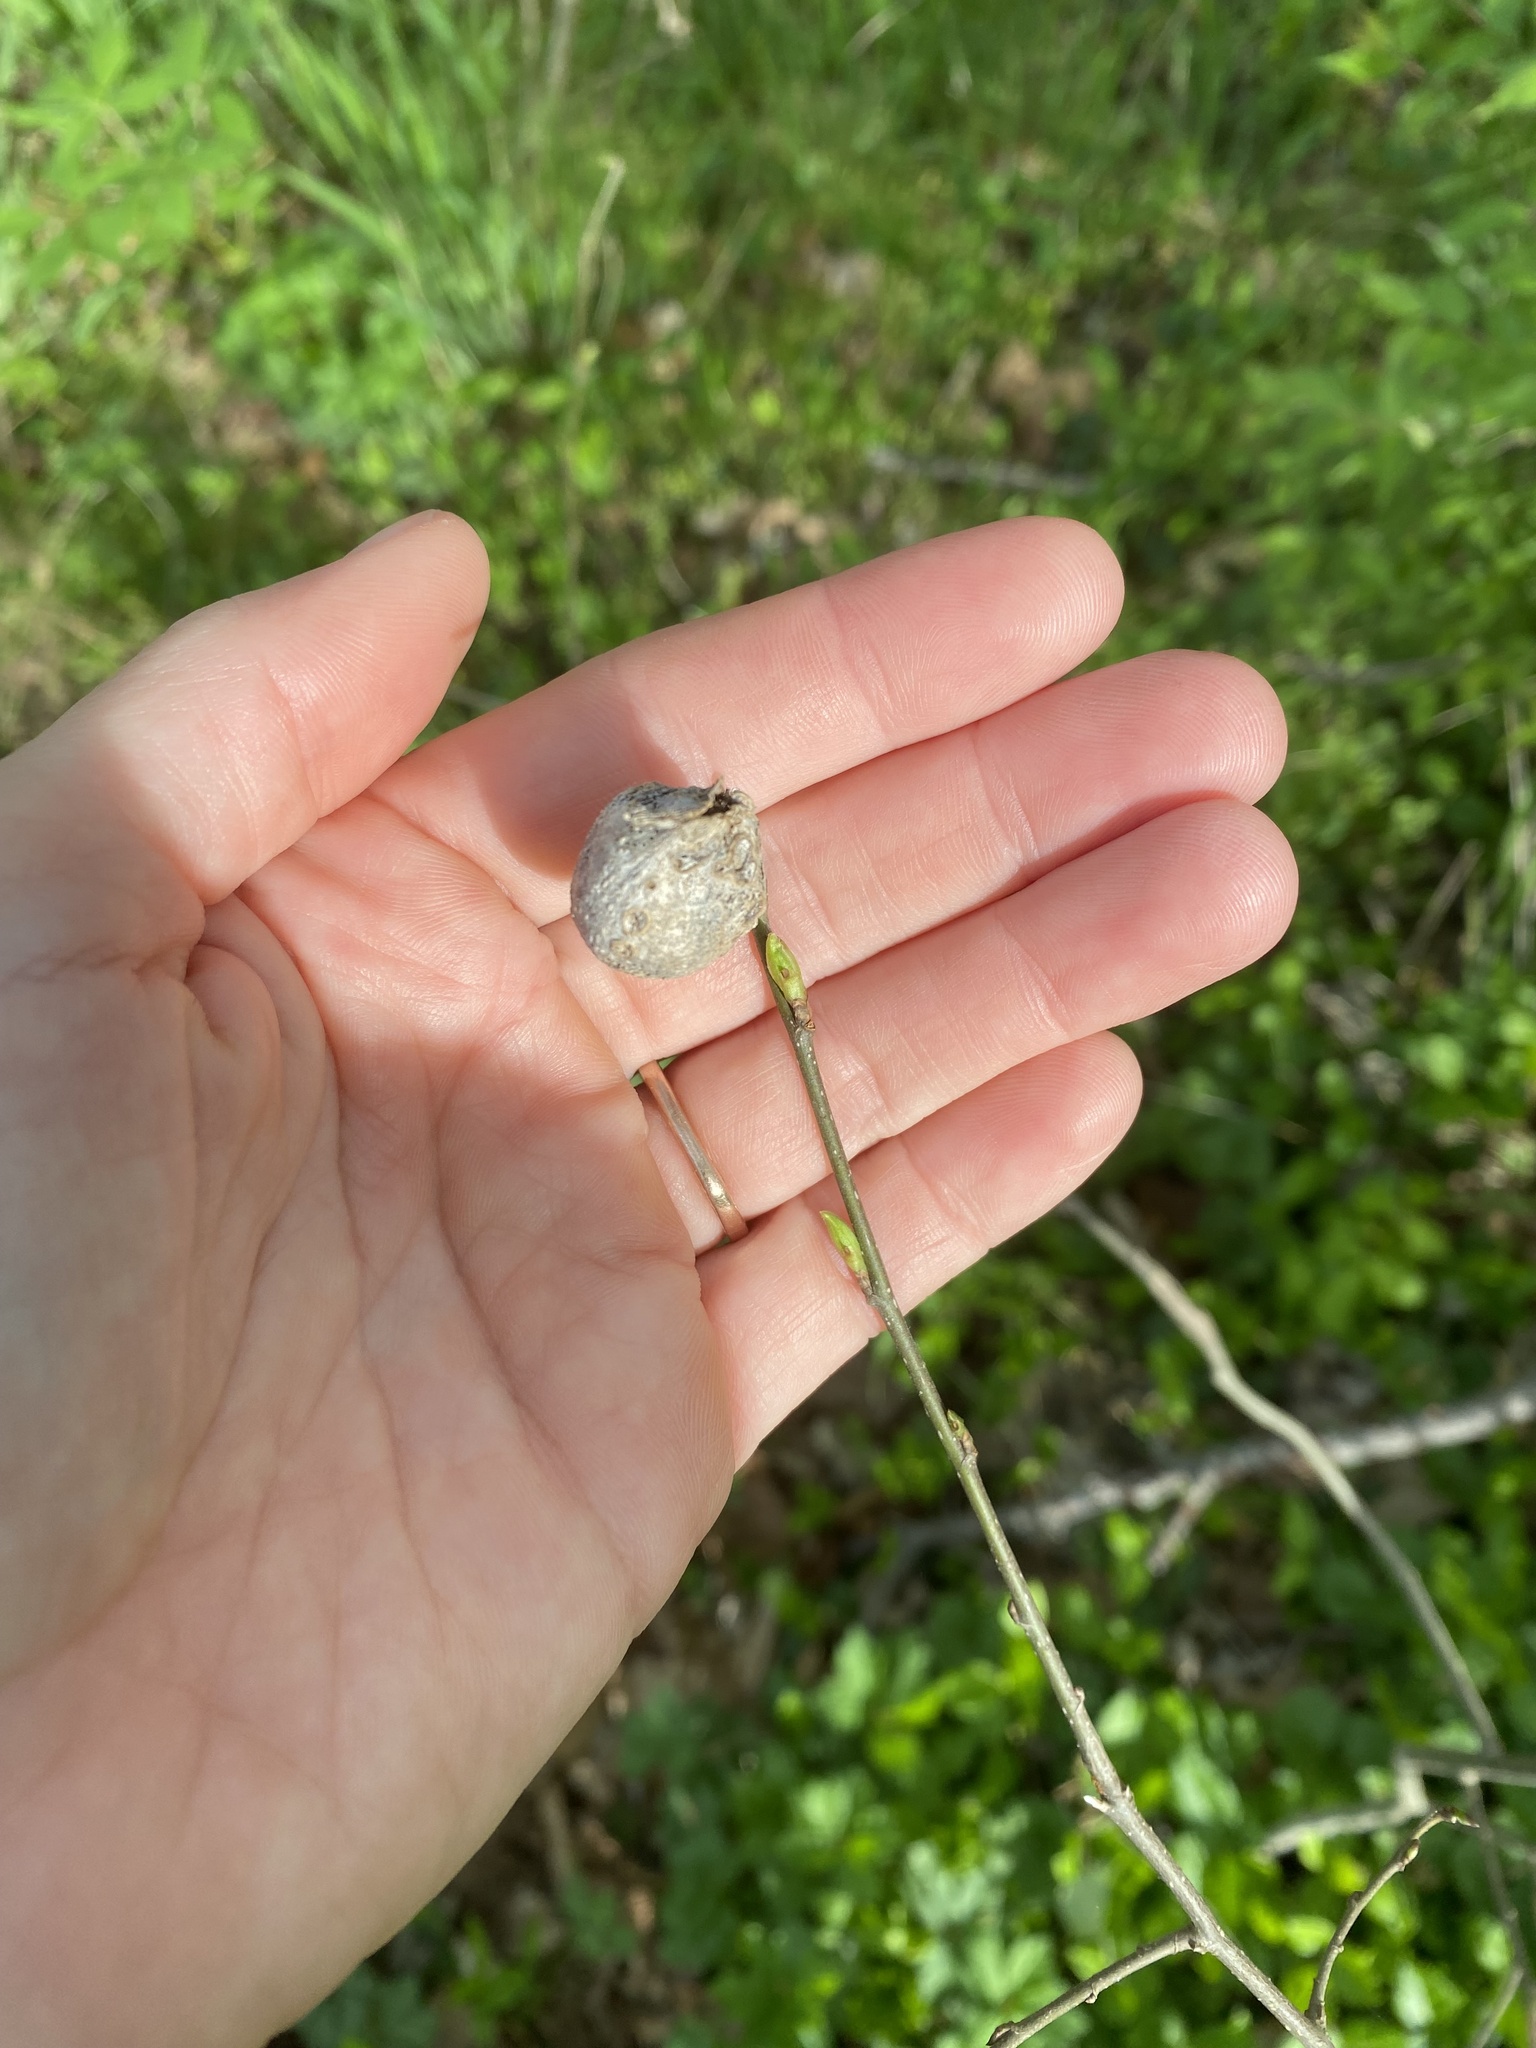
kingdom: Animalia
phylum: Arthropoda
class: Insecta
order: Hemiptera
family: Aphalaridae
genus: Pachypsylla
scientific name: Pachypsylla venusta
